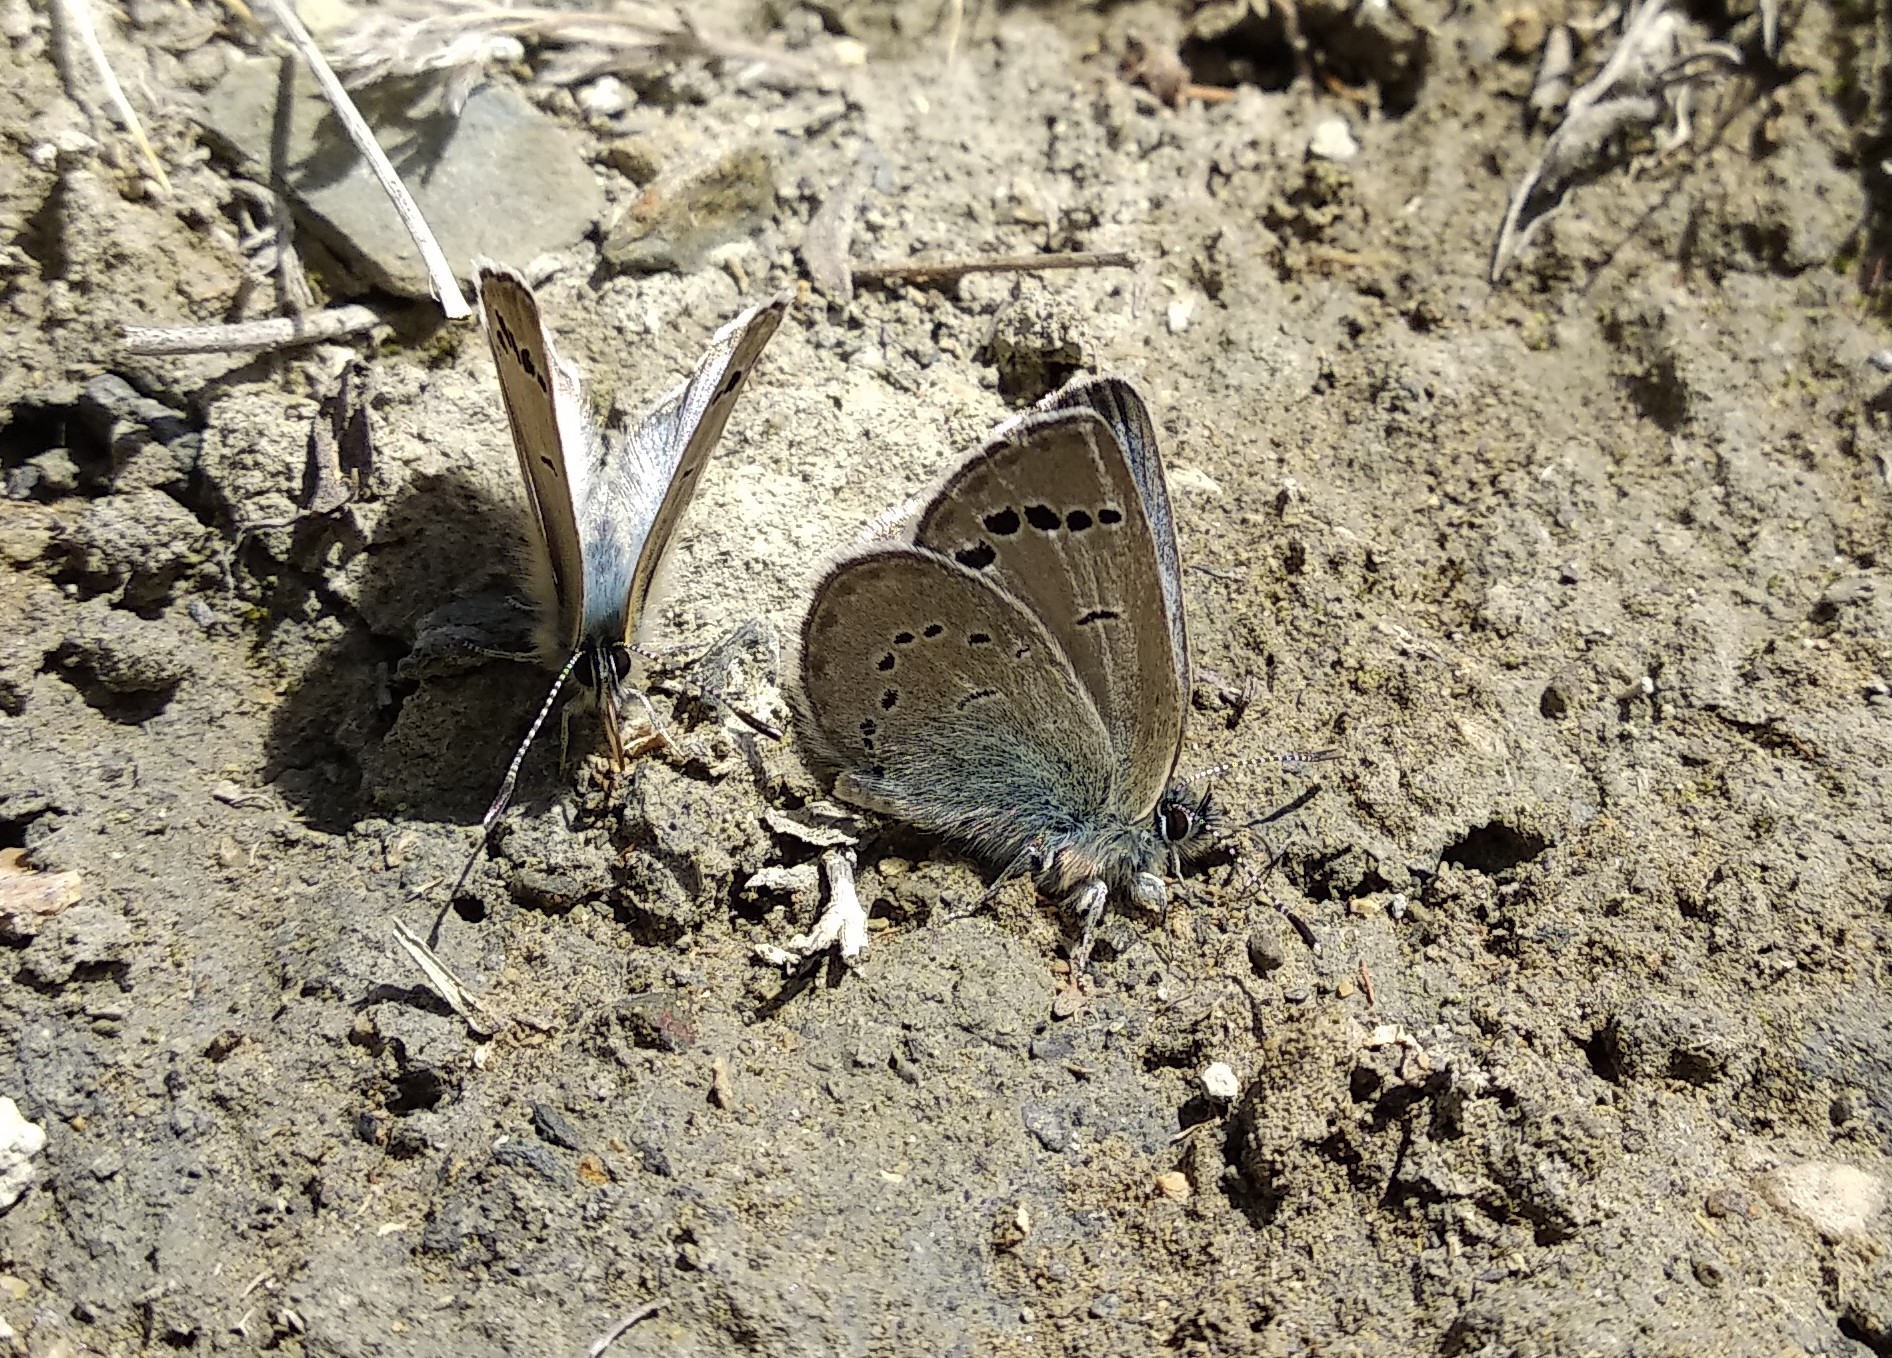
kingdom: Animalia
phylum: Arthropoda
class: Insecta
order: Lepidoptera
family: Lycaenidae
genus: Glaucopsyche
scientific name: Glaucopsyche argali
